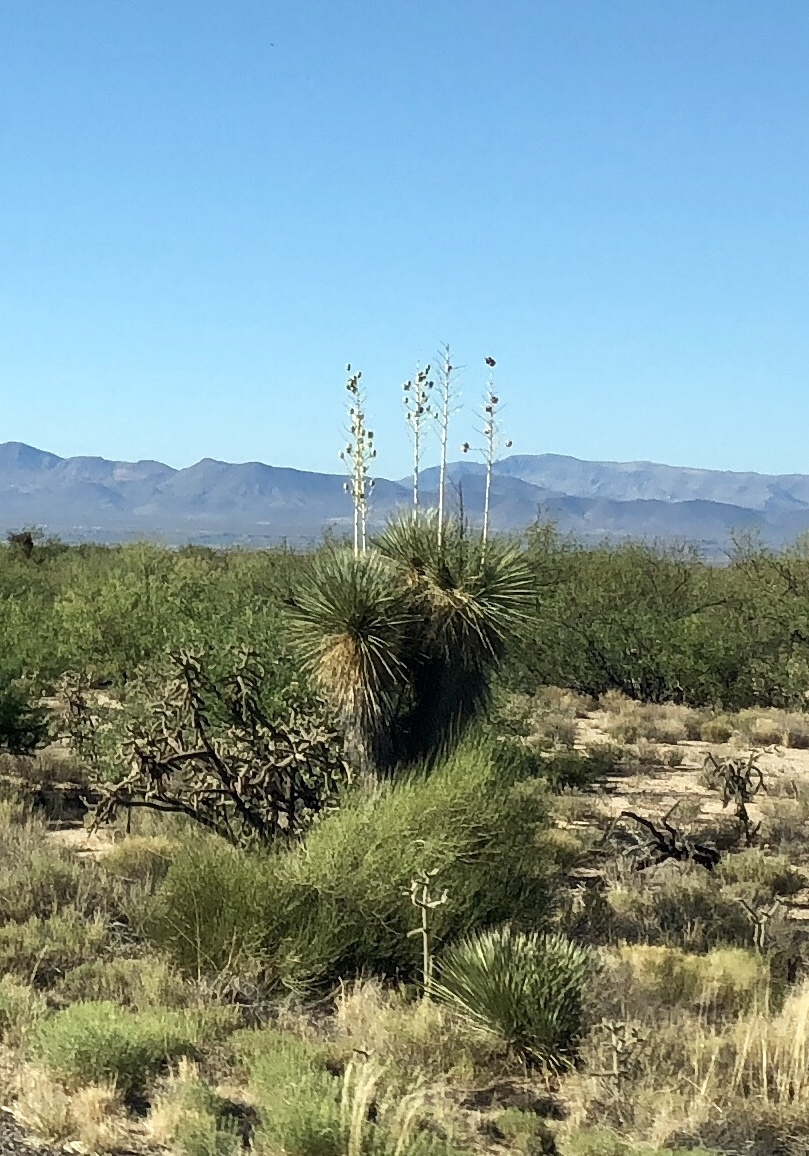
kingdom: Plantae
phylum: Tracheophyta
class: Liliopsida
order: Asparagales
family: Asparagaceae
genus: Yucca
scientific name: Yucca elata
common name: Palmella
